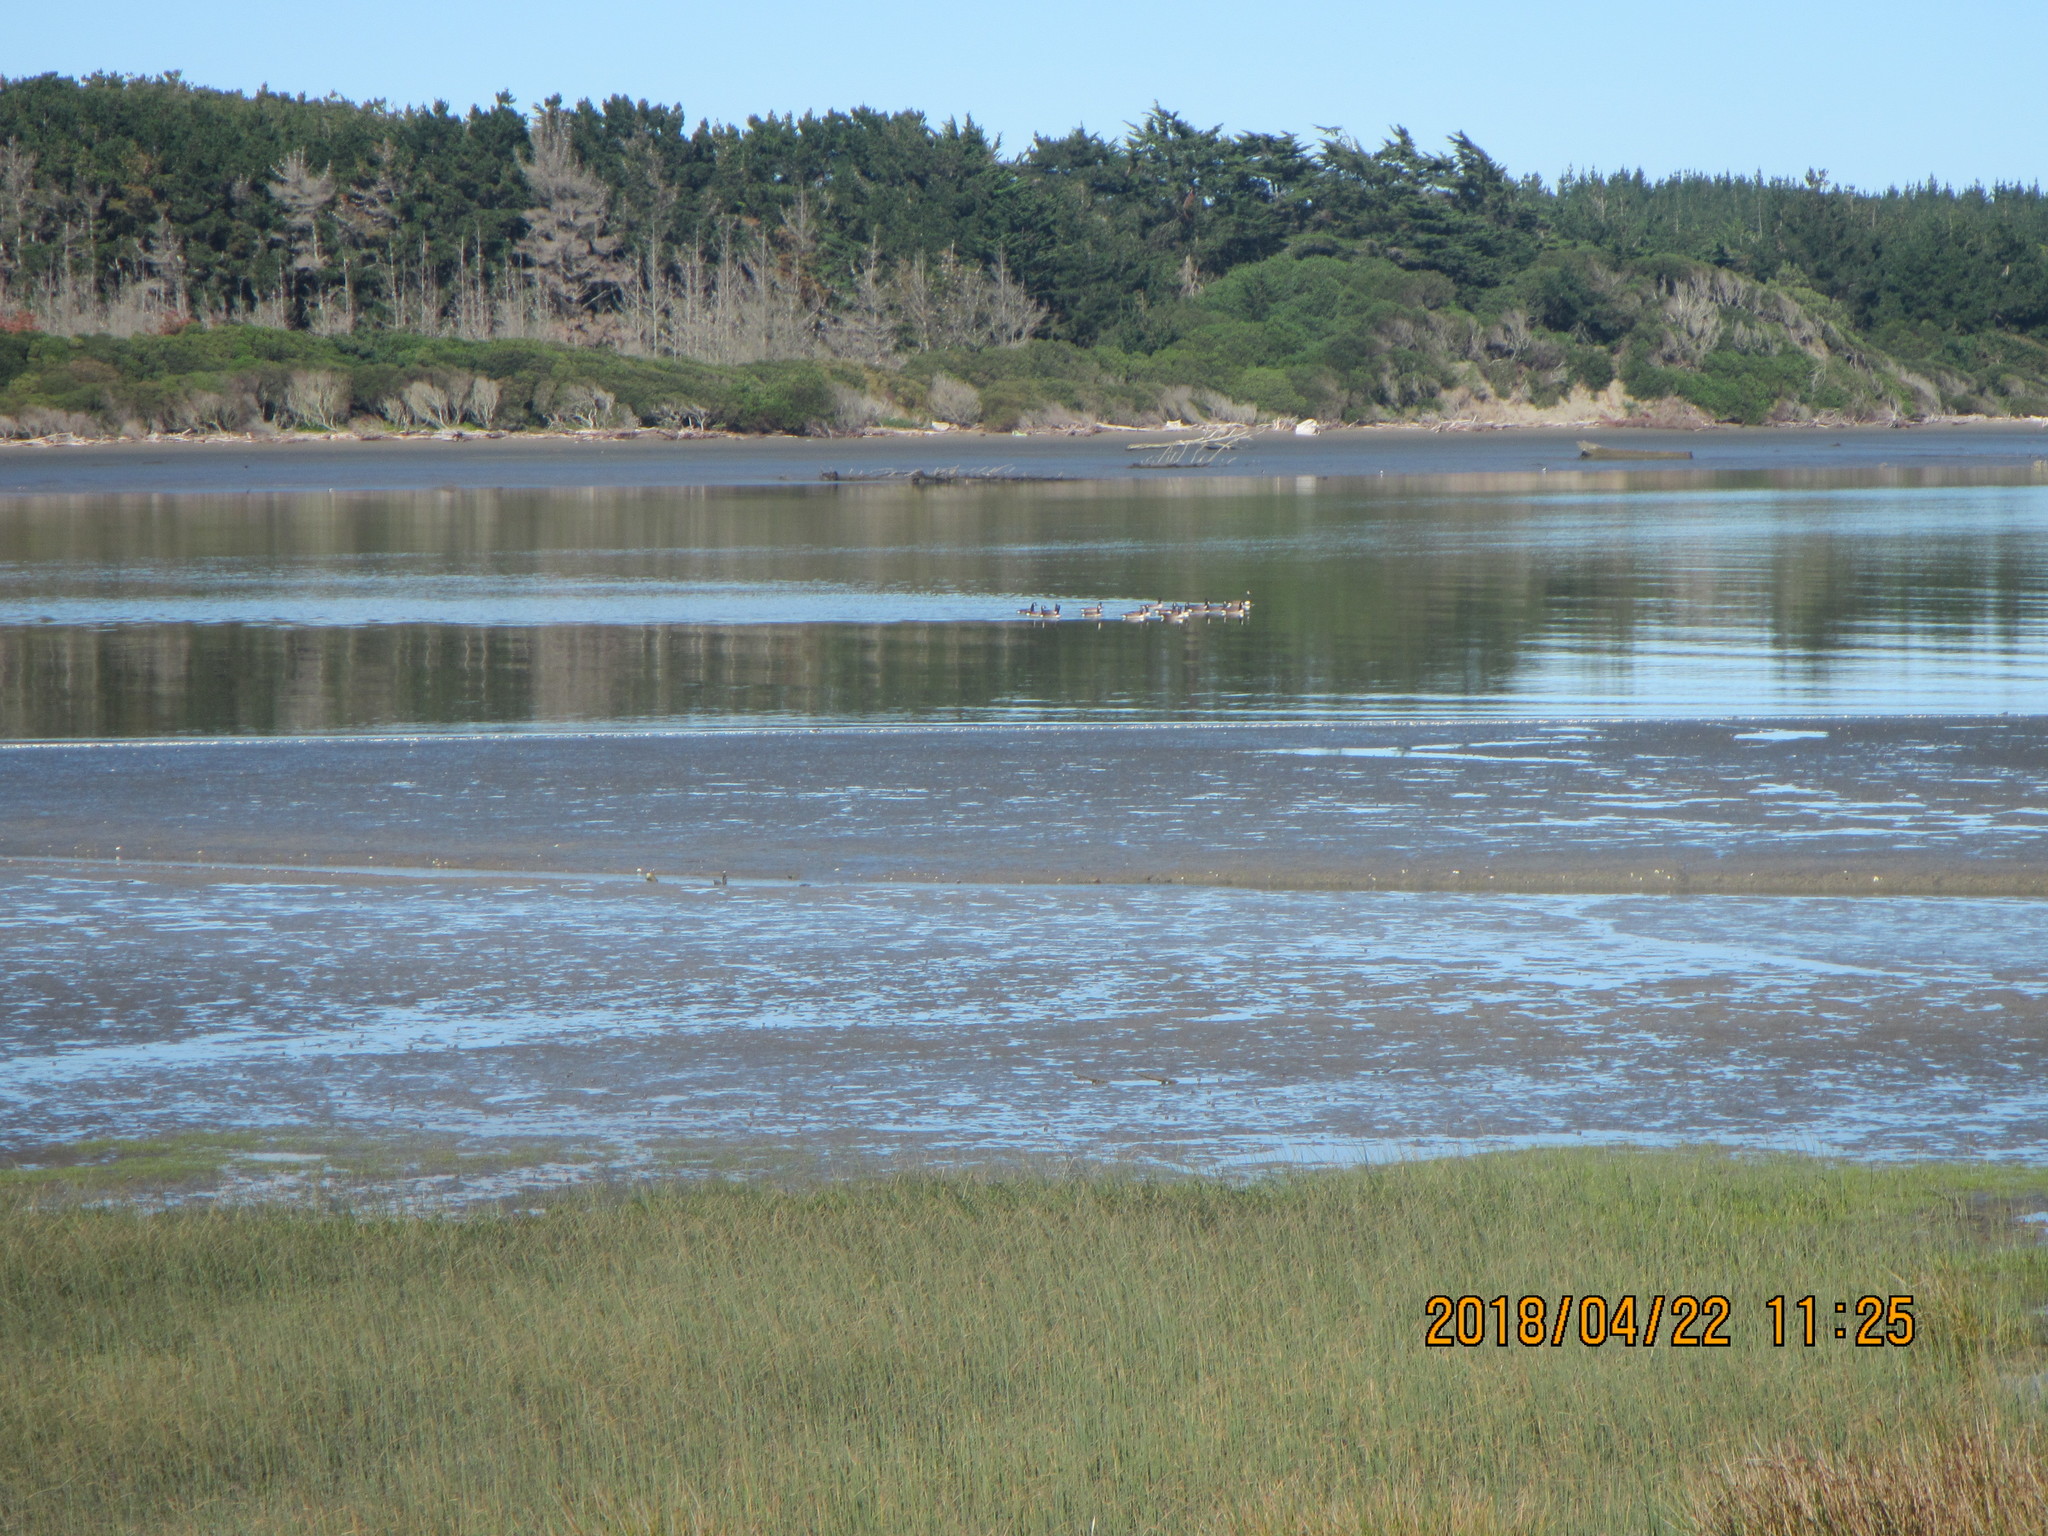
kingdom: Animalia
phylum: Chordata
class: Aves
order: Anseriformes
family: Anatidae
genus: Branta
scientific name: Branta canadensis
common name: Canada goose
